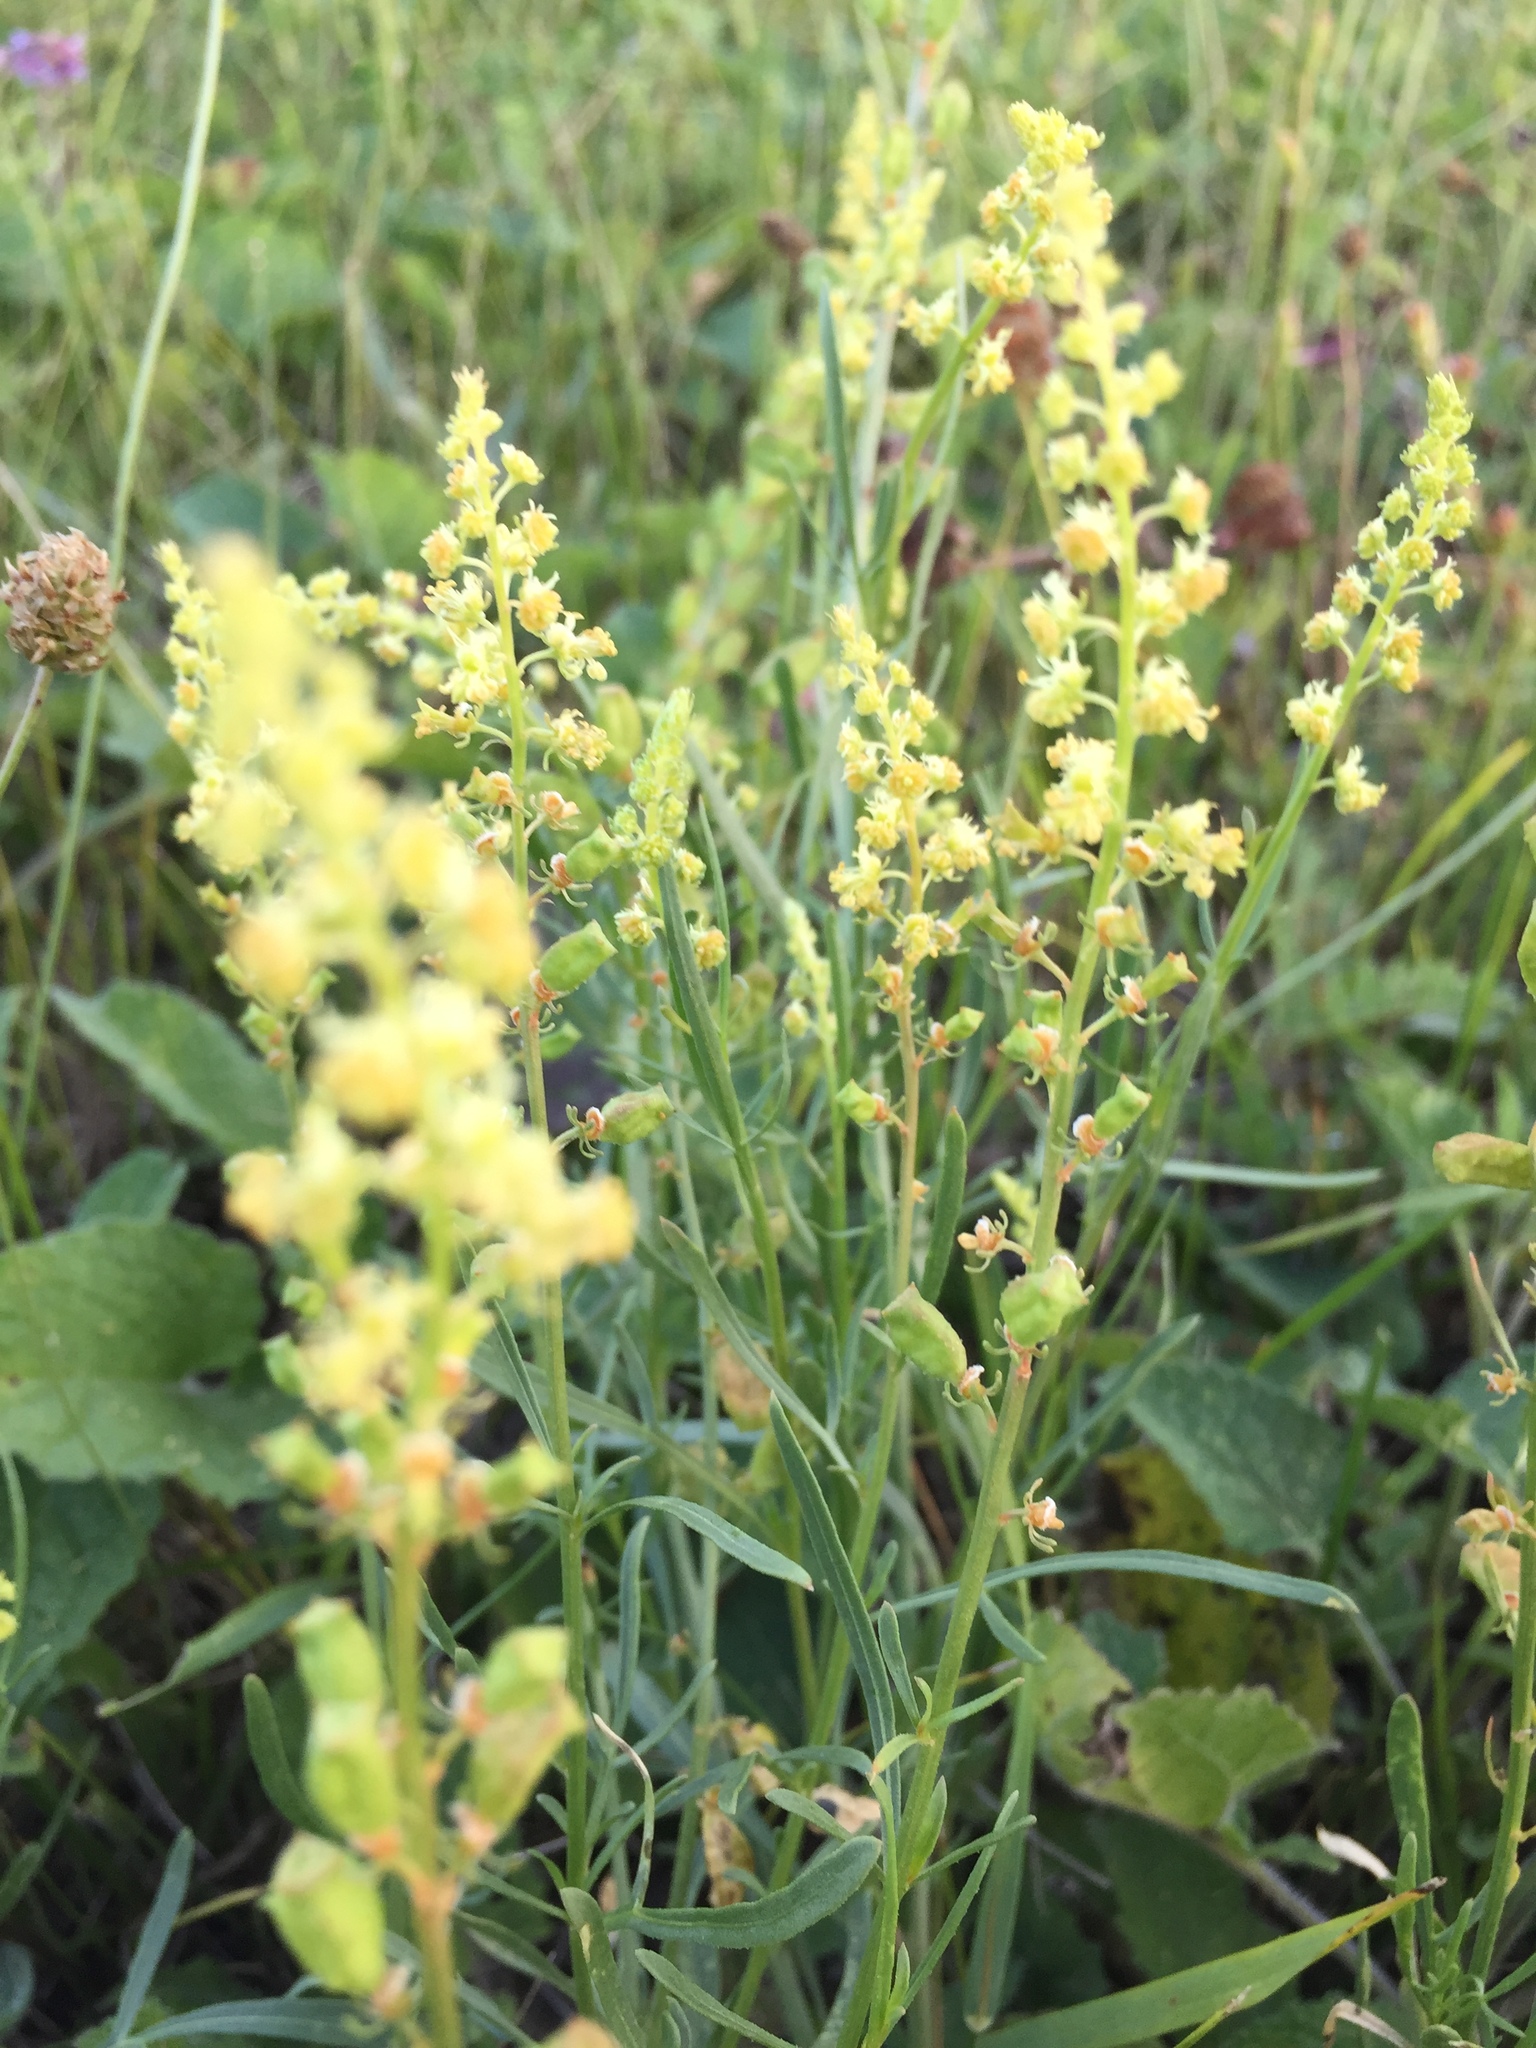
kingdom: Plantae
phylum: Tracheophyta
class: Magnoliopsida
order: Brassicales
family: Resedaceae
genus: Reseda
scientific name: Reseda lutea
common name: Wild mignonette
